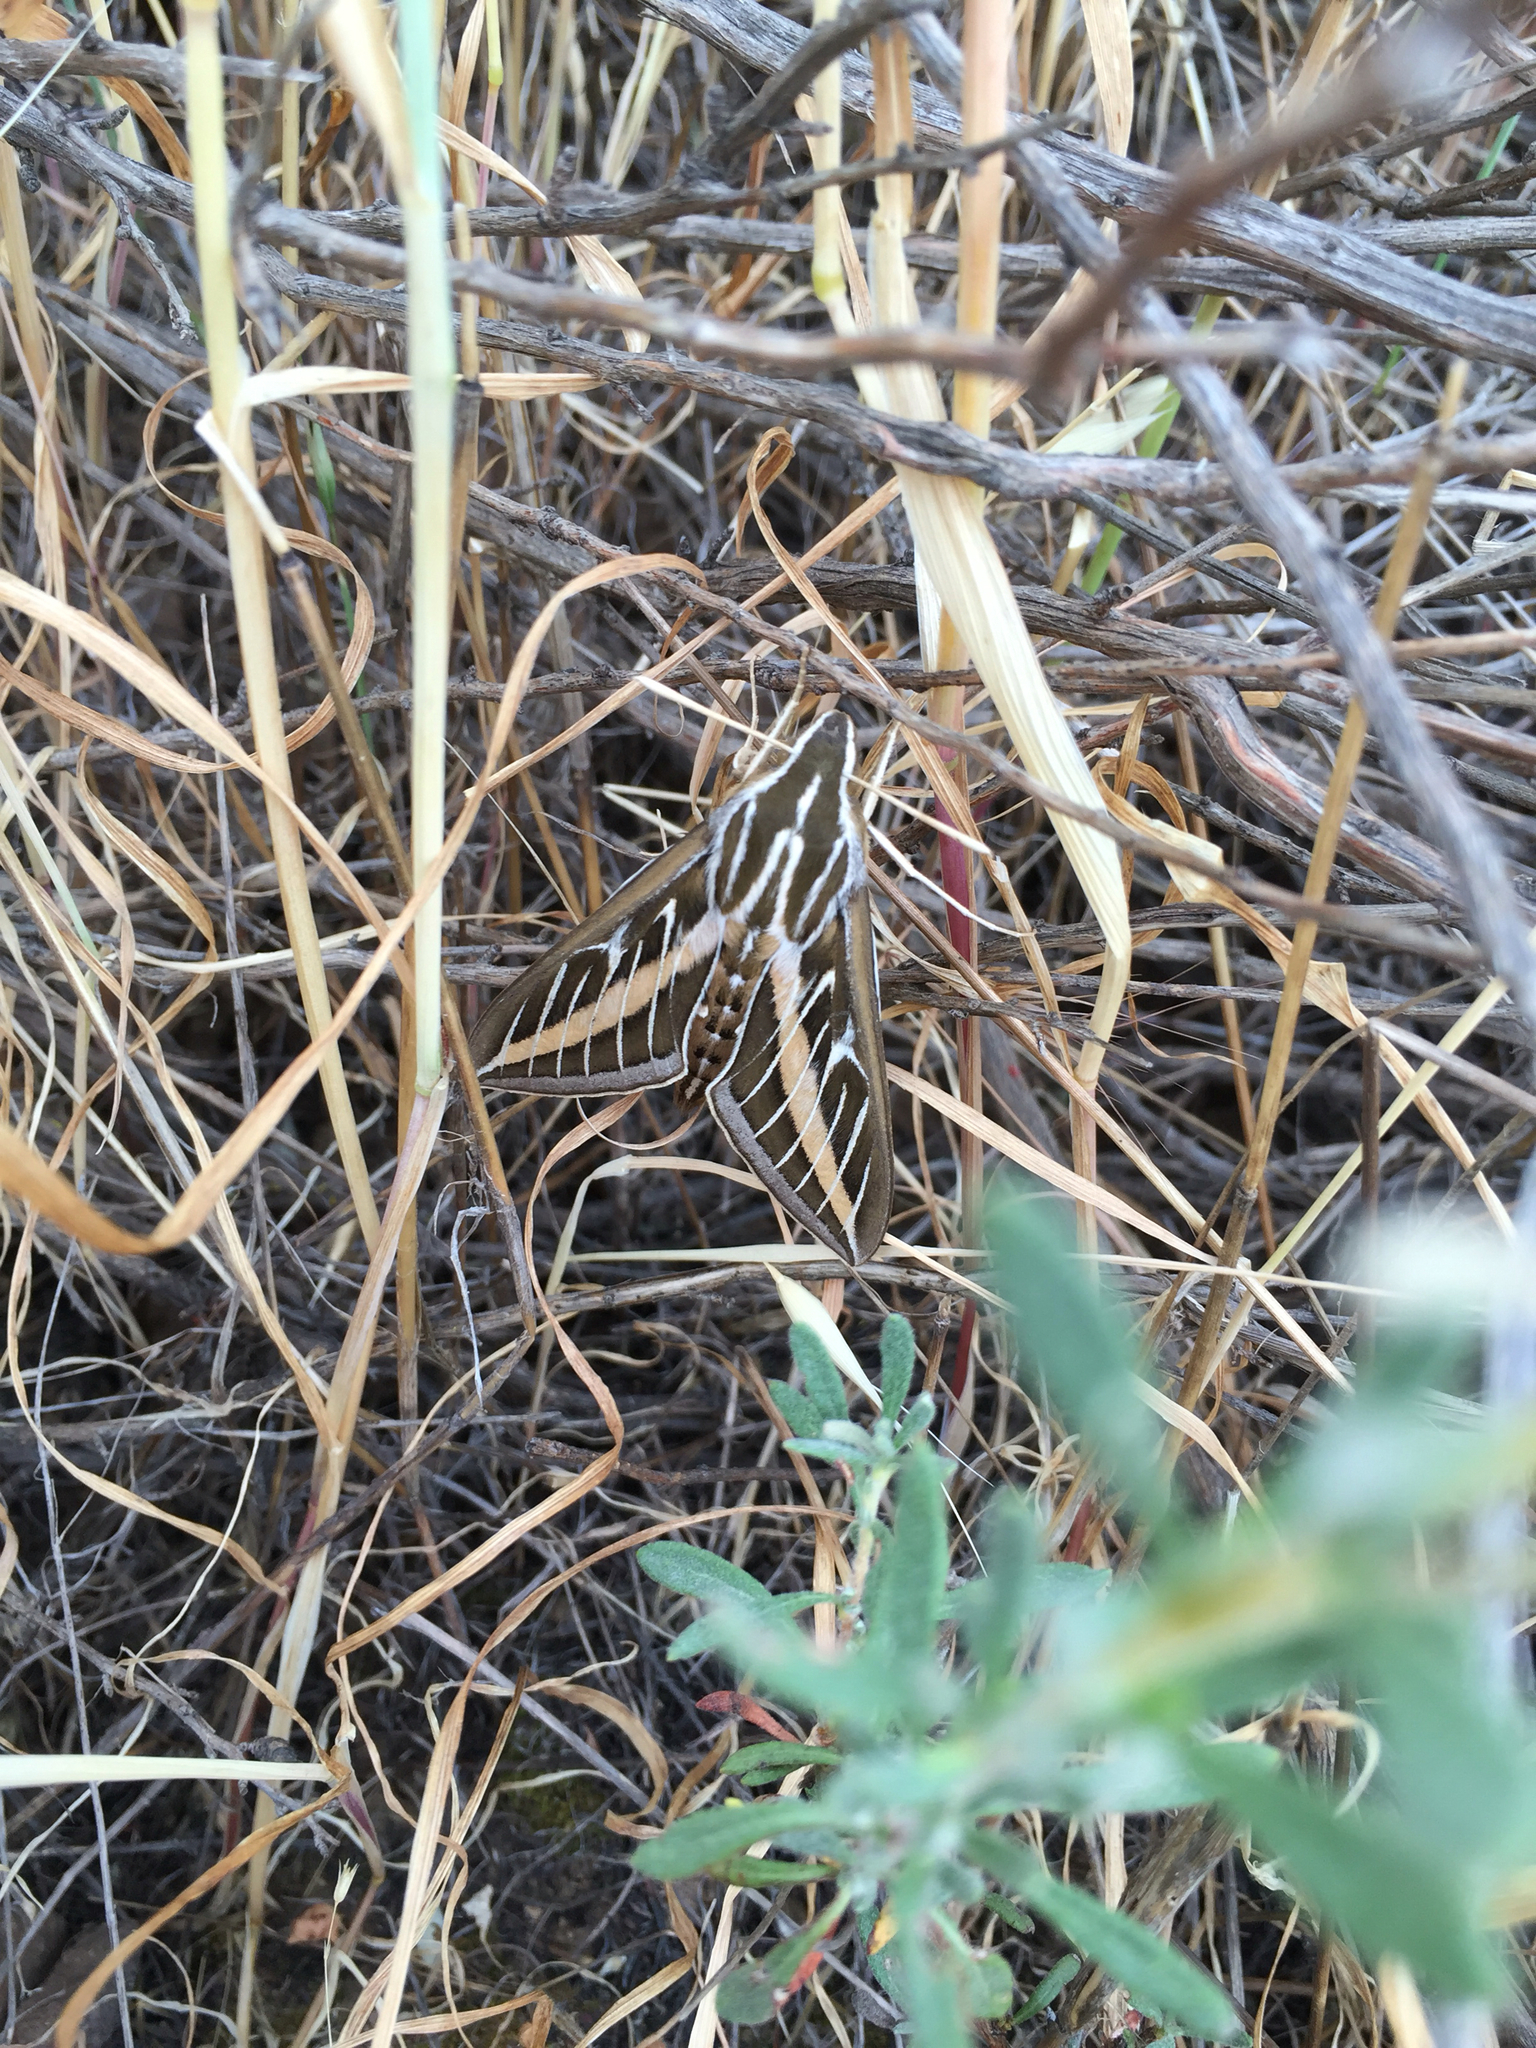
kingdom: Animalia
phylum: Arthropoda
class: Insecta
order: Lepidoptera
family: Sphingidae
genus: Hyles
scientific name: Hyles lineata
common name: White-lined sphinx
